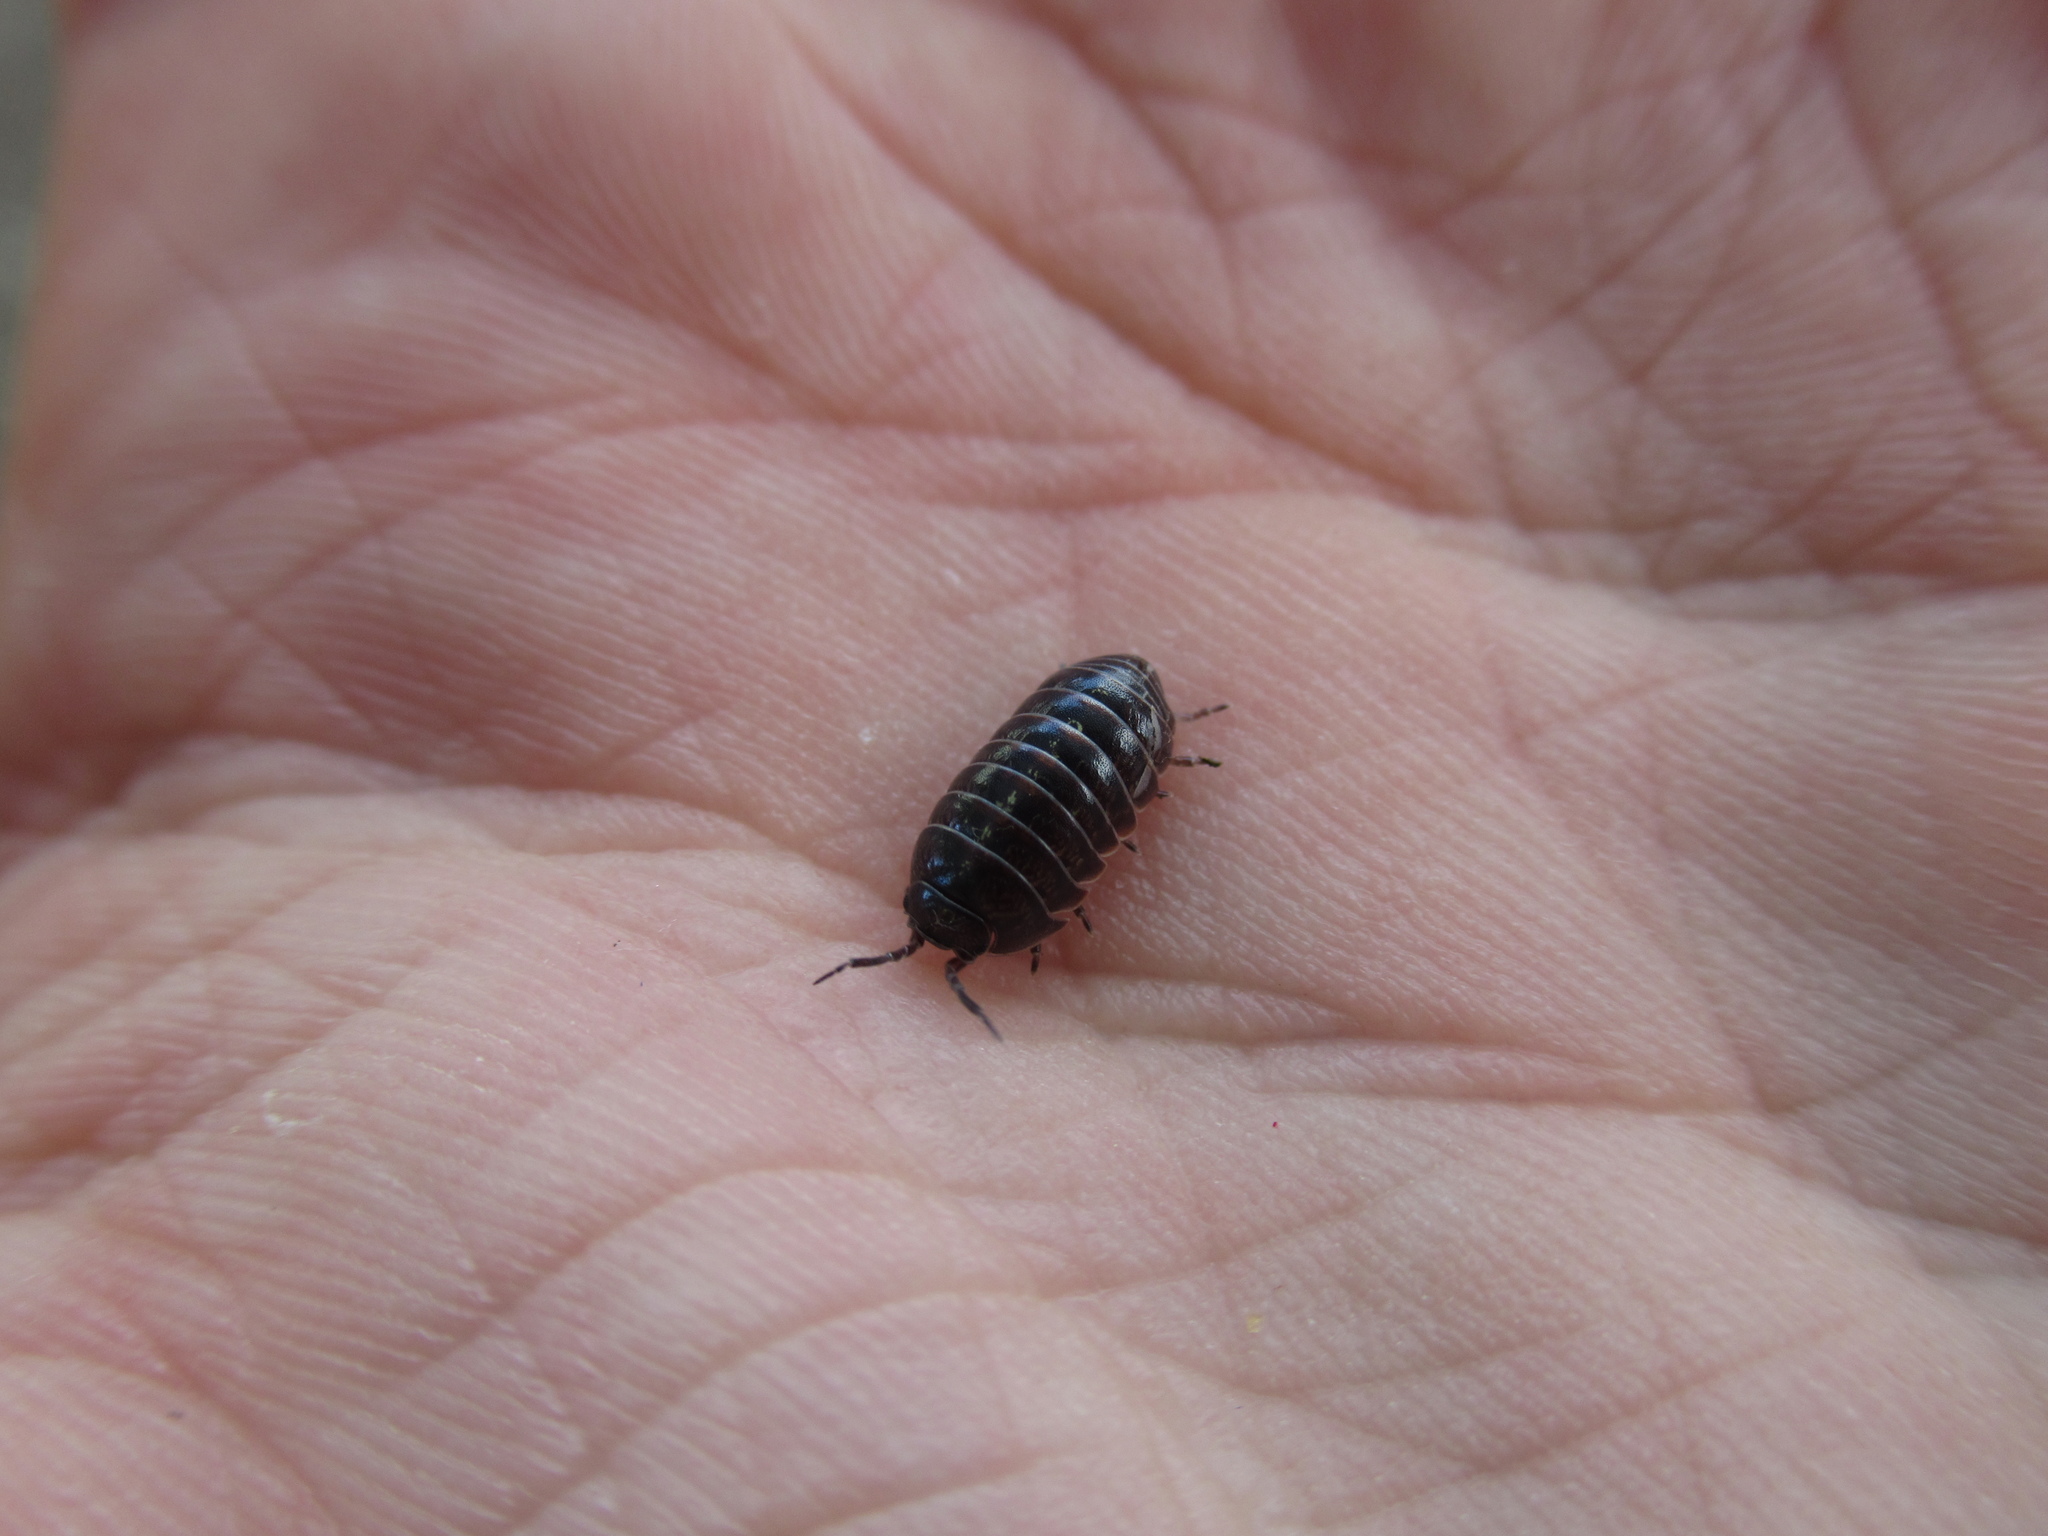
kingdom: Animalia
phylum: Arthropoda
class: Malacostraca
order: Isopoda
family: Armadillidiidae
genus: Armadillidium
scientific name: Armadillidium vulgare
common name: Common pill woodlouse
